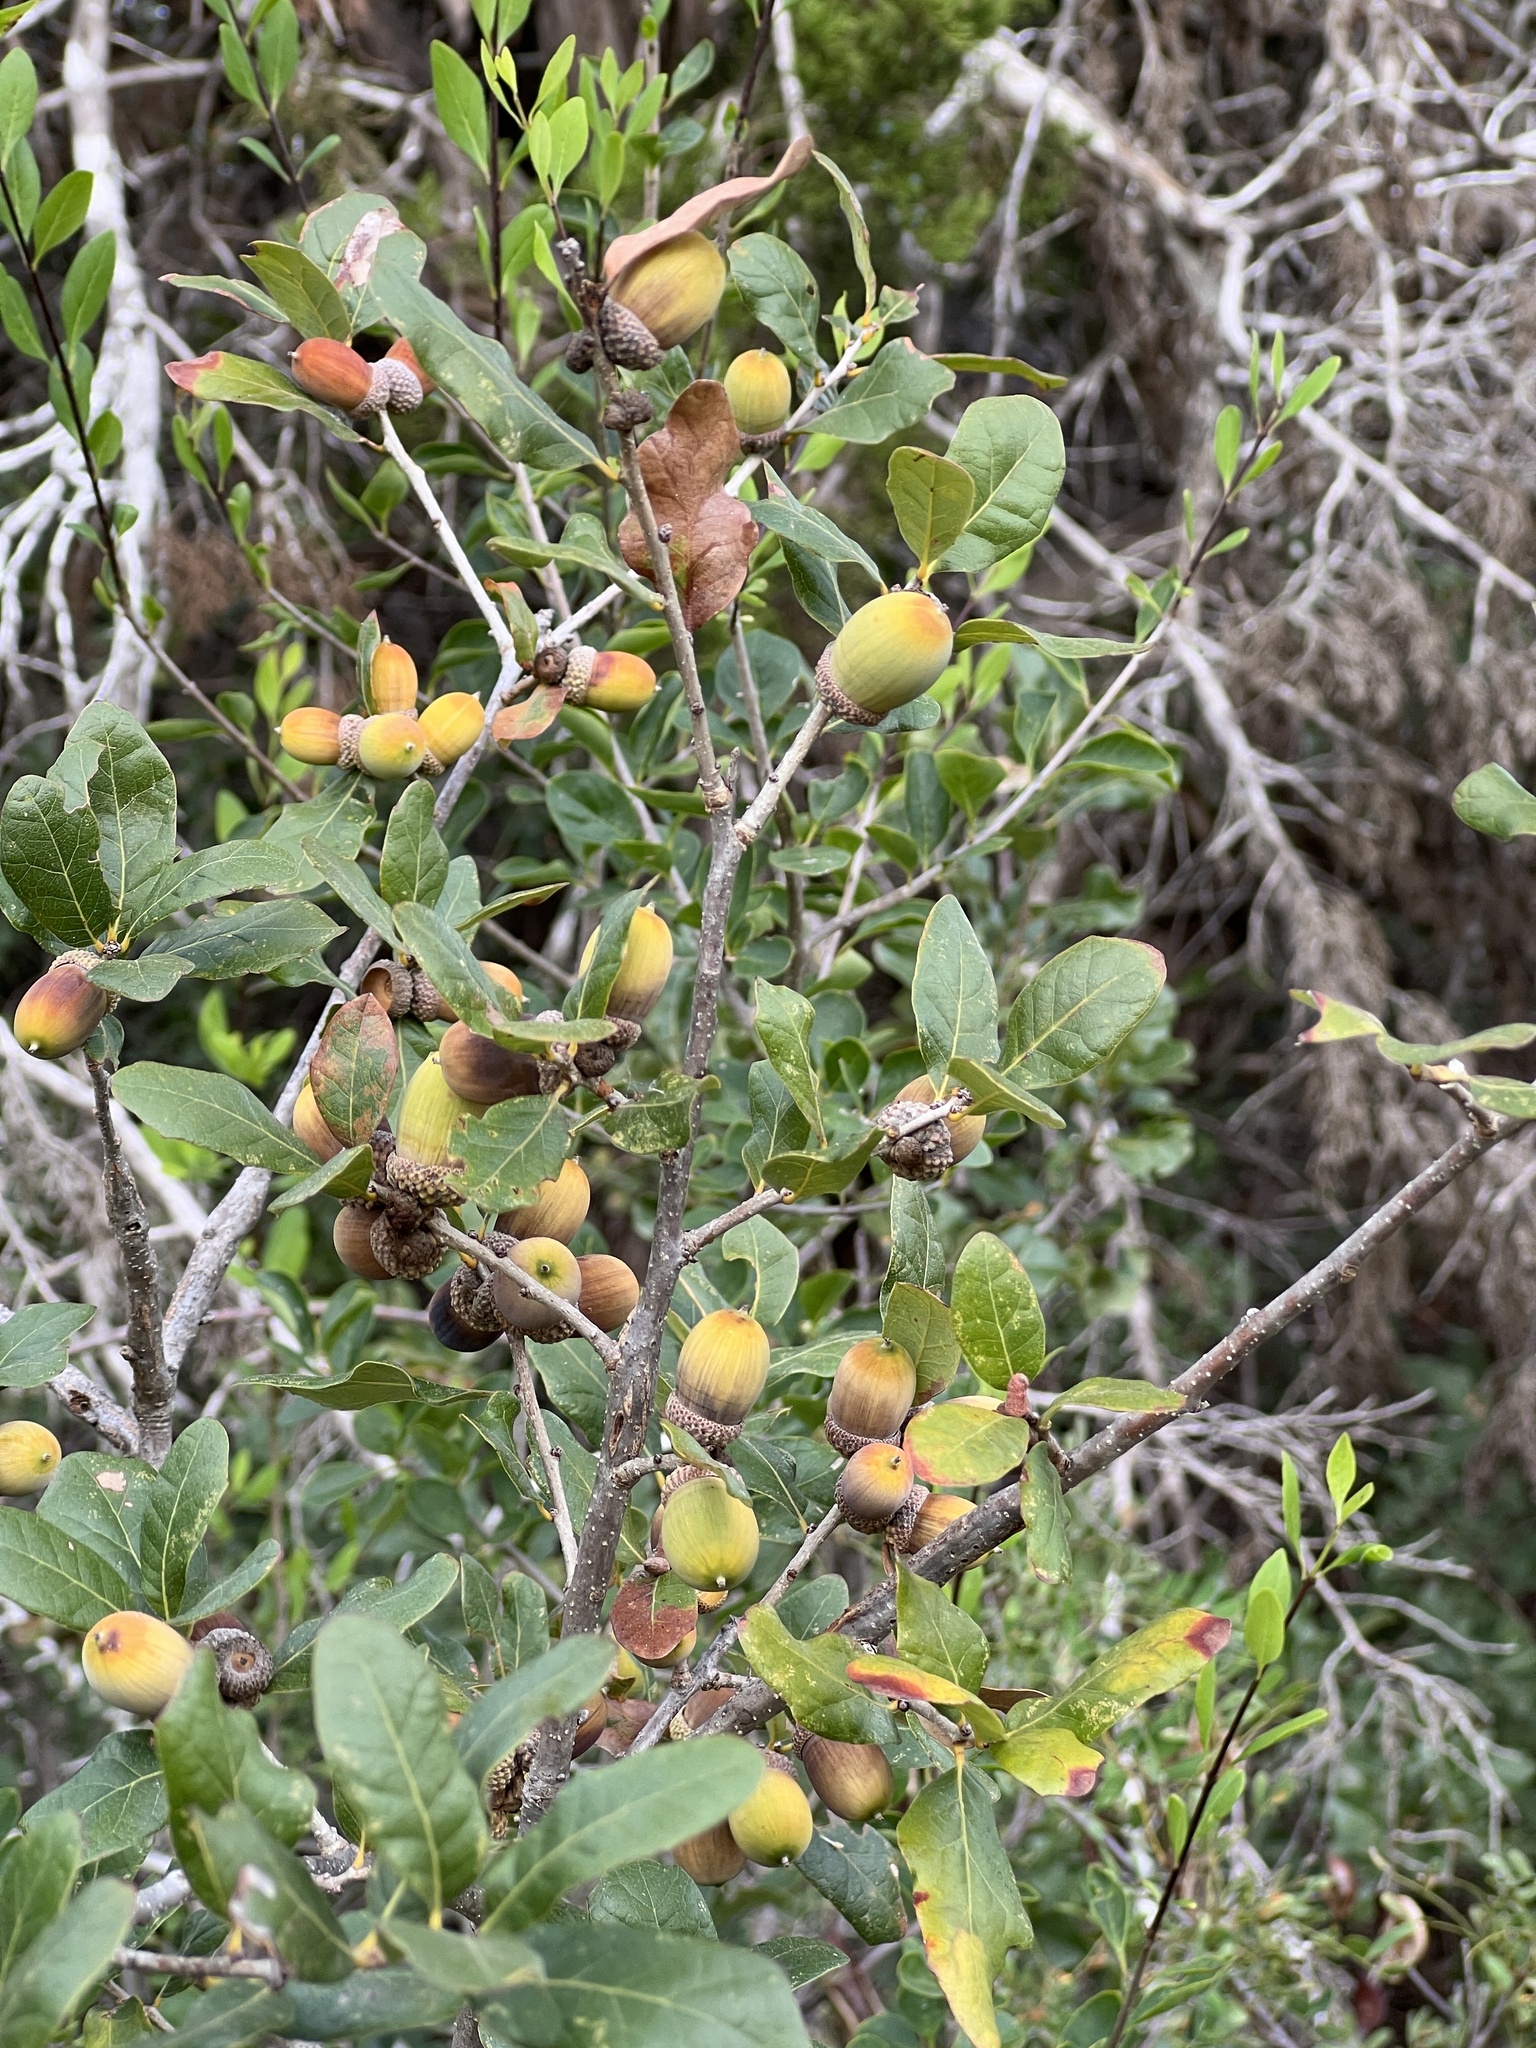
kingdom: Plantae
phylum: Tracheophyta
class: Magnoliopsida
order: Fagales
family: Fagaceae
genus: Quercus
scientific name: Quercus sinuata
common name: Durand oak
